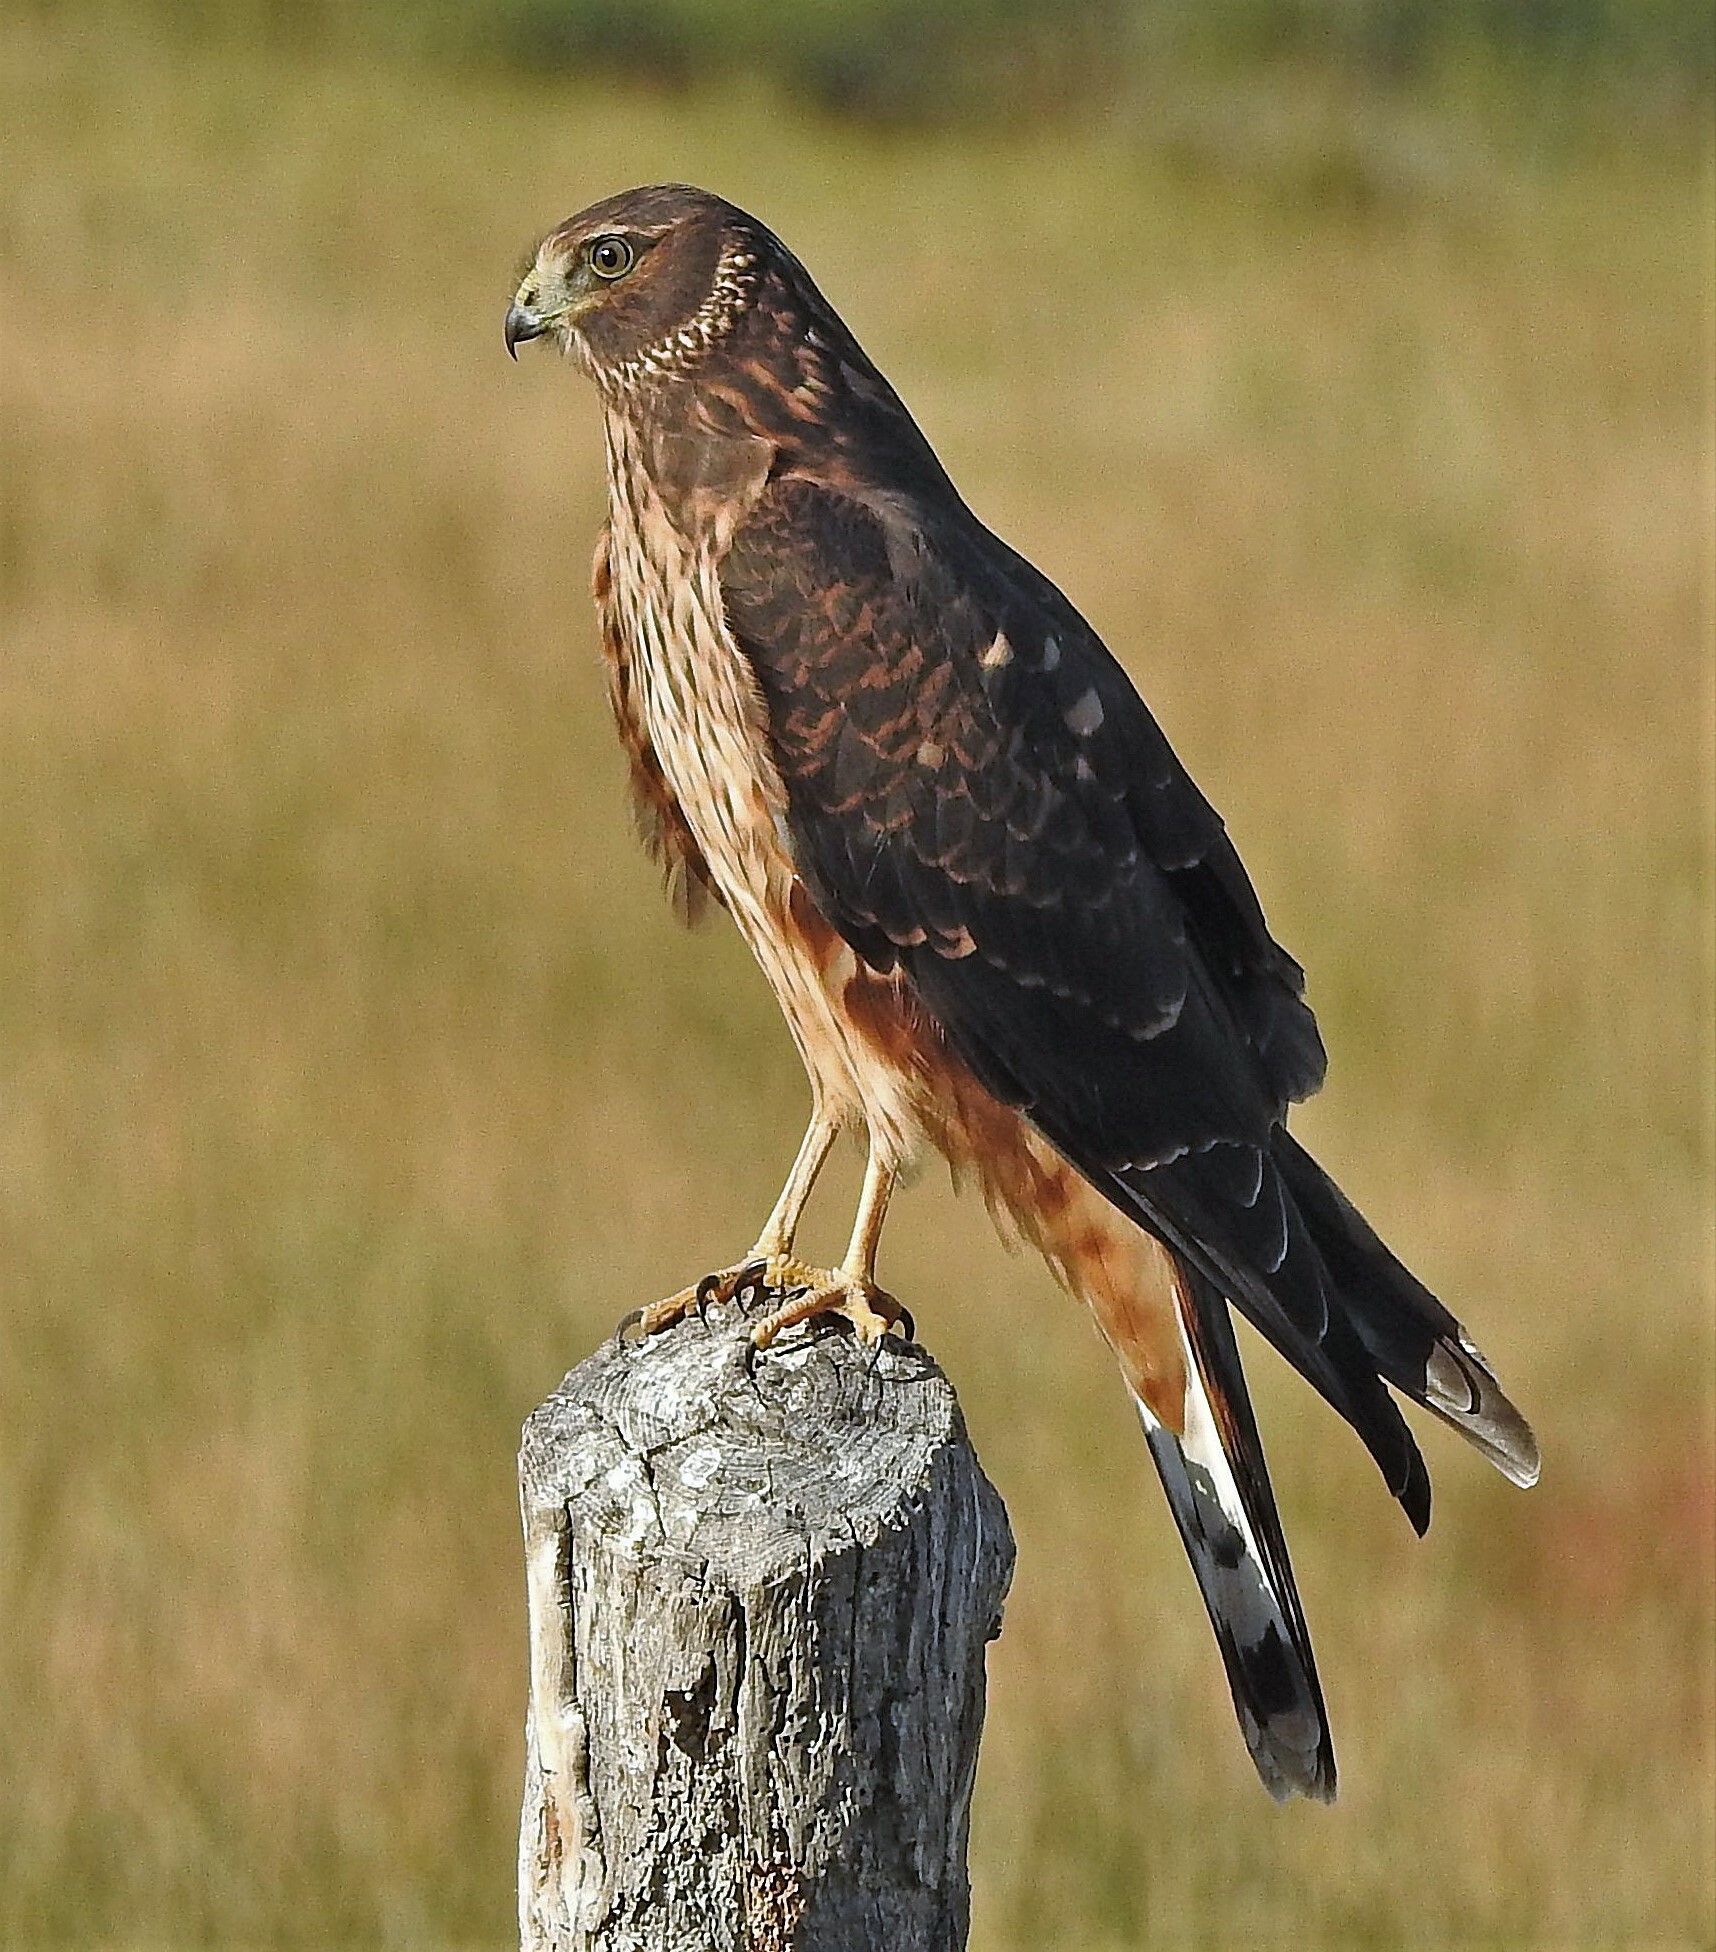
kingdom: Animalia
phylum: Chordata
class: Aves
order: Accipitriformes
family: Accipitridae
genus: Circus
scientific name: Circus cinereus
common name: Cinereous harrier
